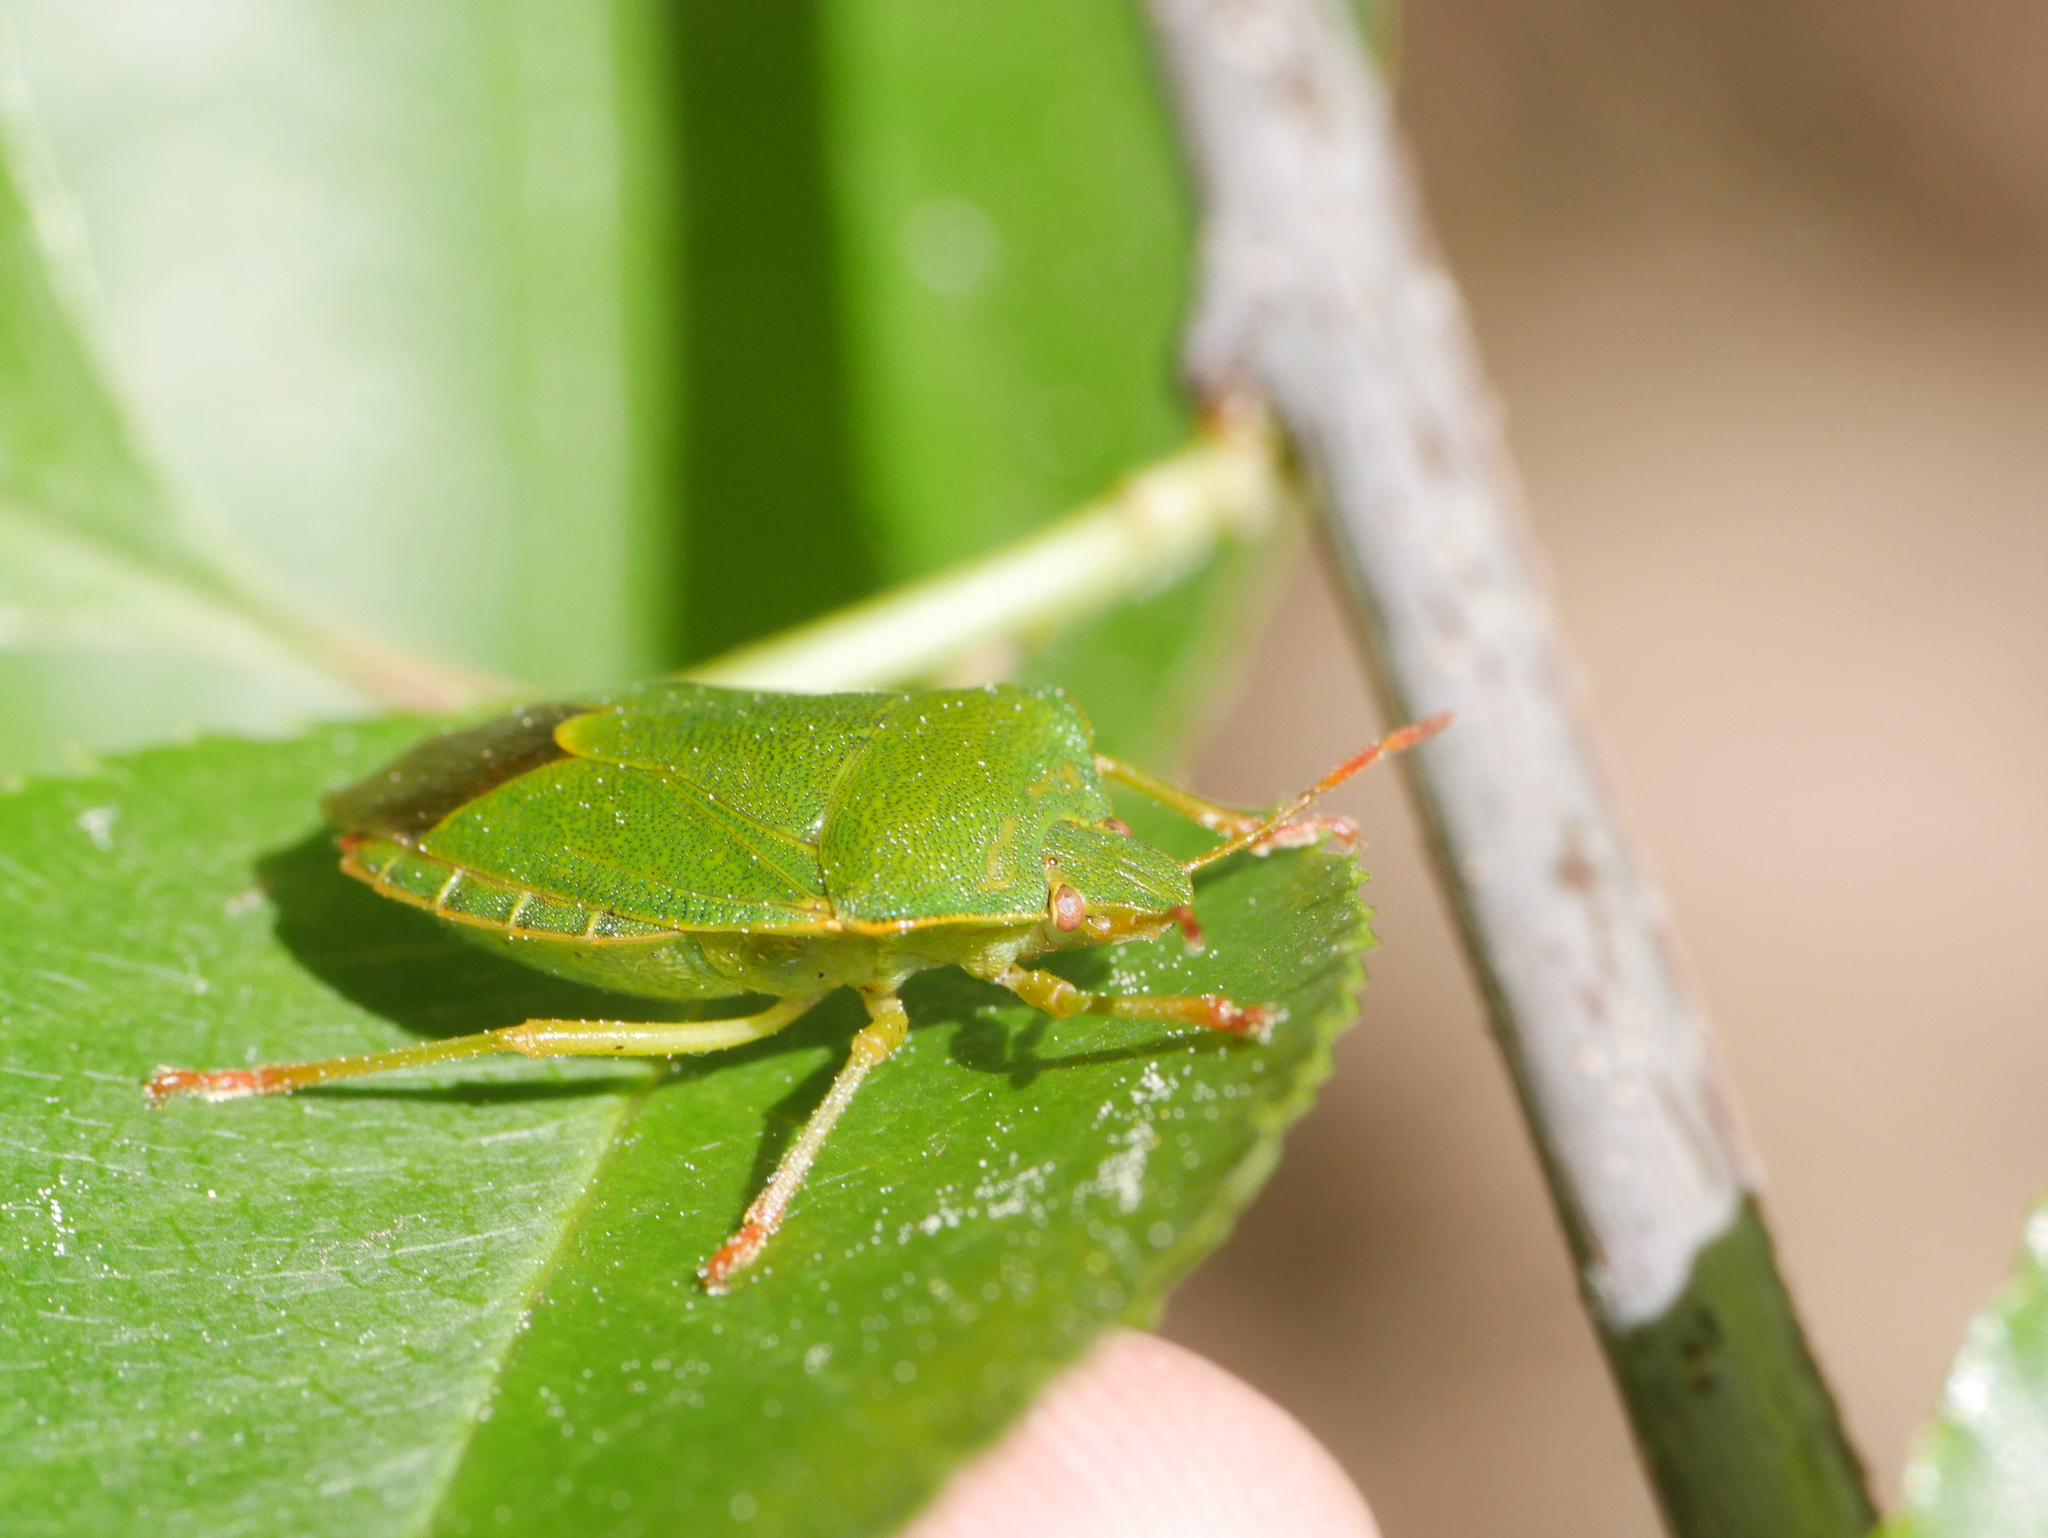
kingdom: Animalia
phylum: Arthropoda
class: Insecta
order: Hemiptera
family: Pentatomidae
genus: Palomena
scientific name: Palomena prasina
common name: Green shieldbug
